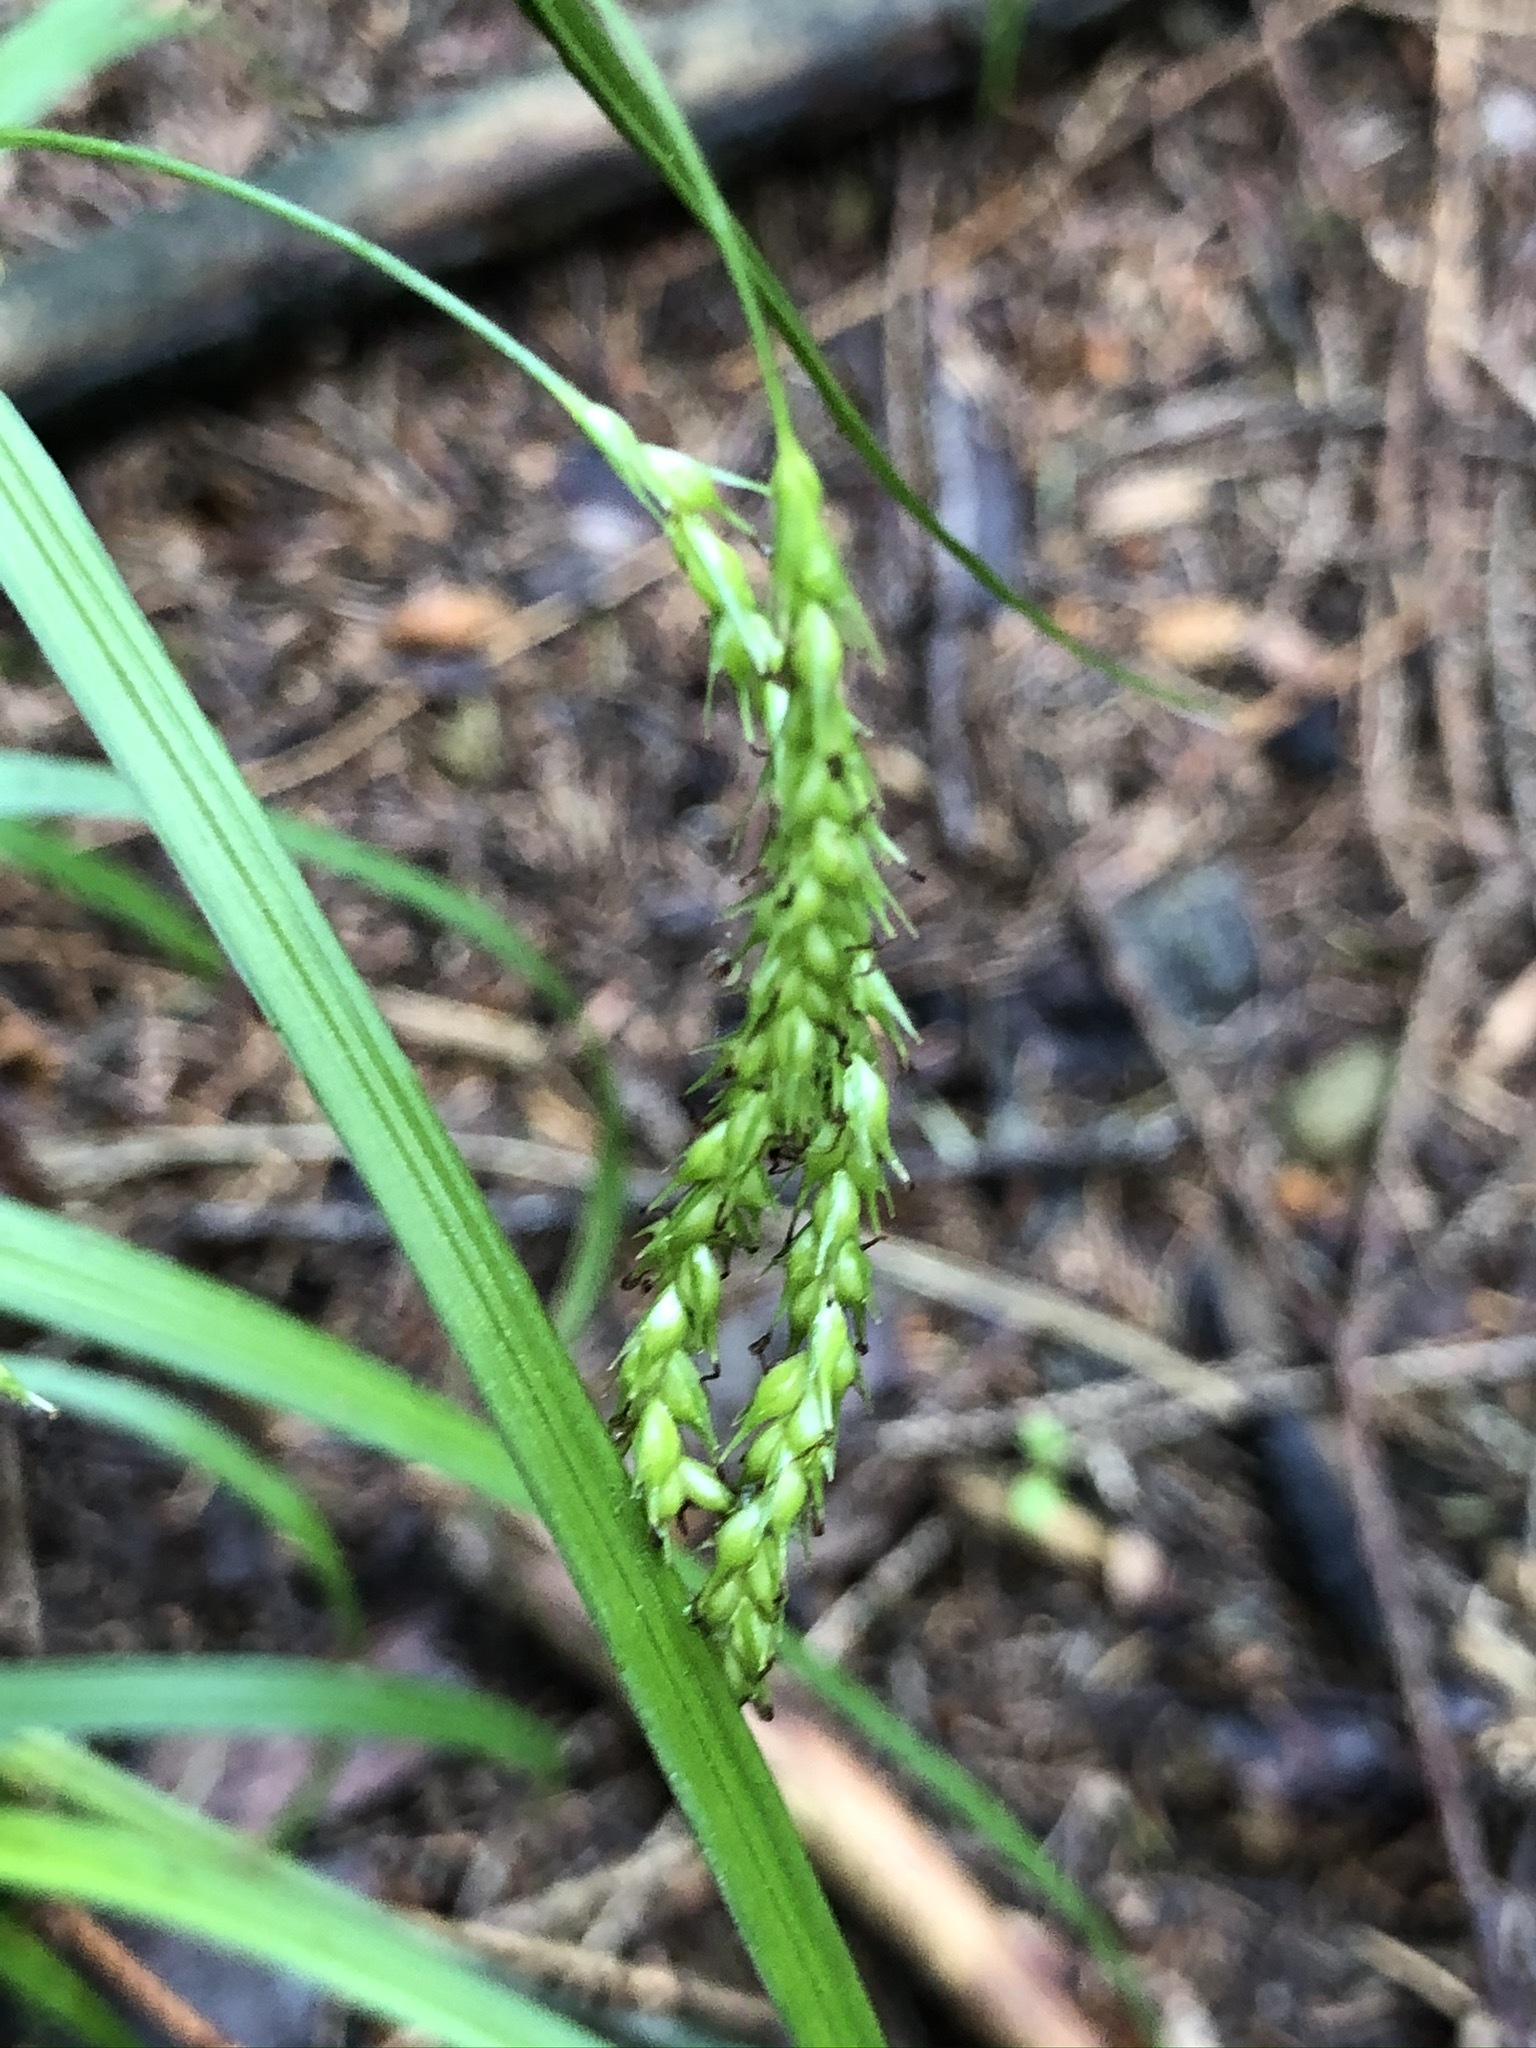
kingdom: Plantae
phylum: Tracheophyta
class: Liliopsida
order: Poales
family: Cyperaceae
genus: Carex
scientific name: Carex sylvatica
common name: Wood-sedge
